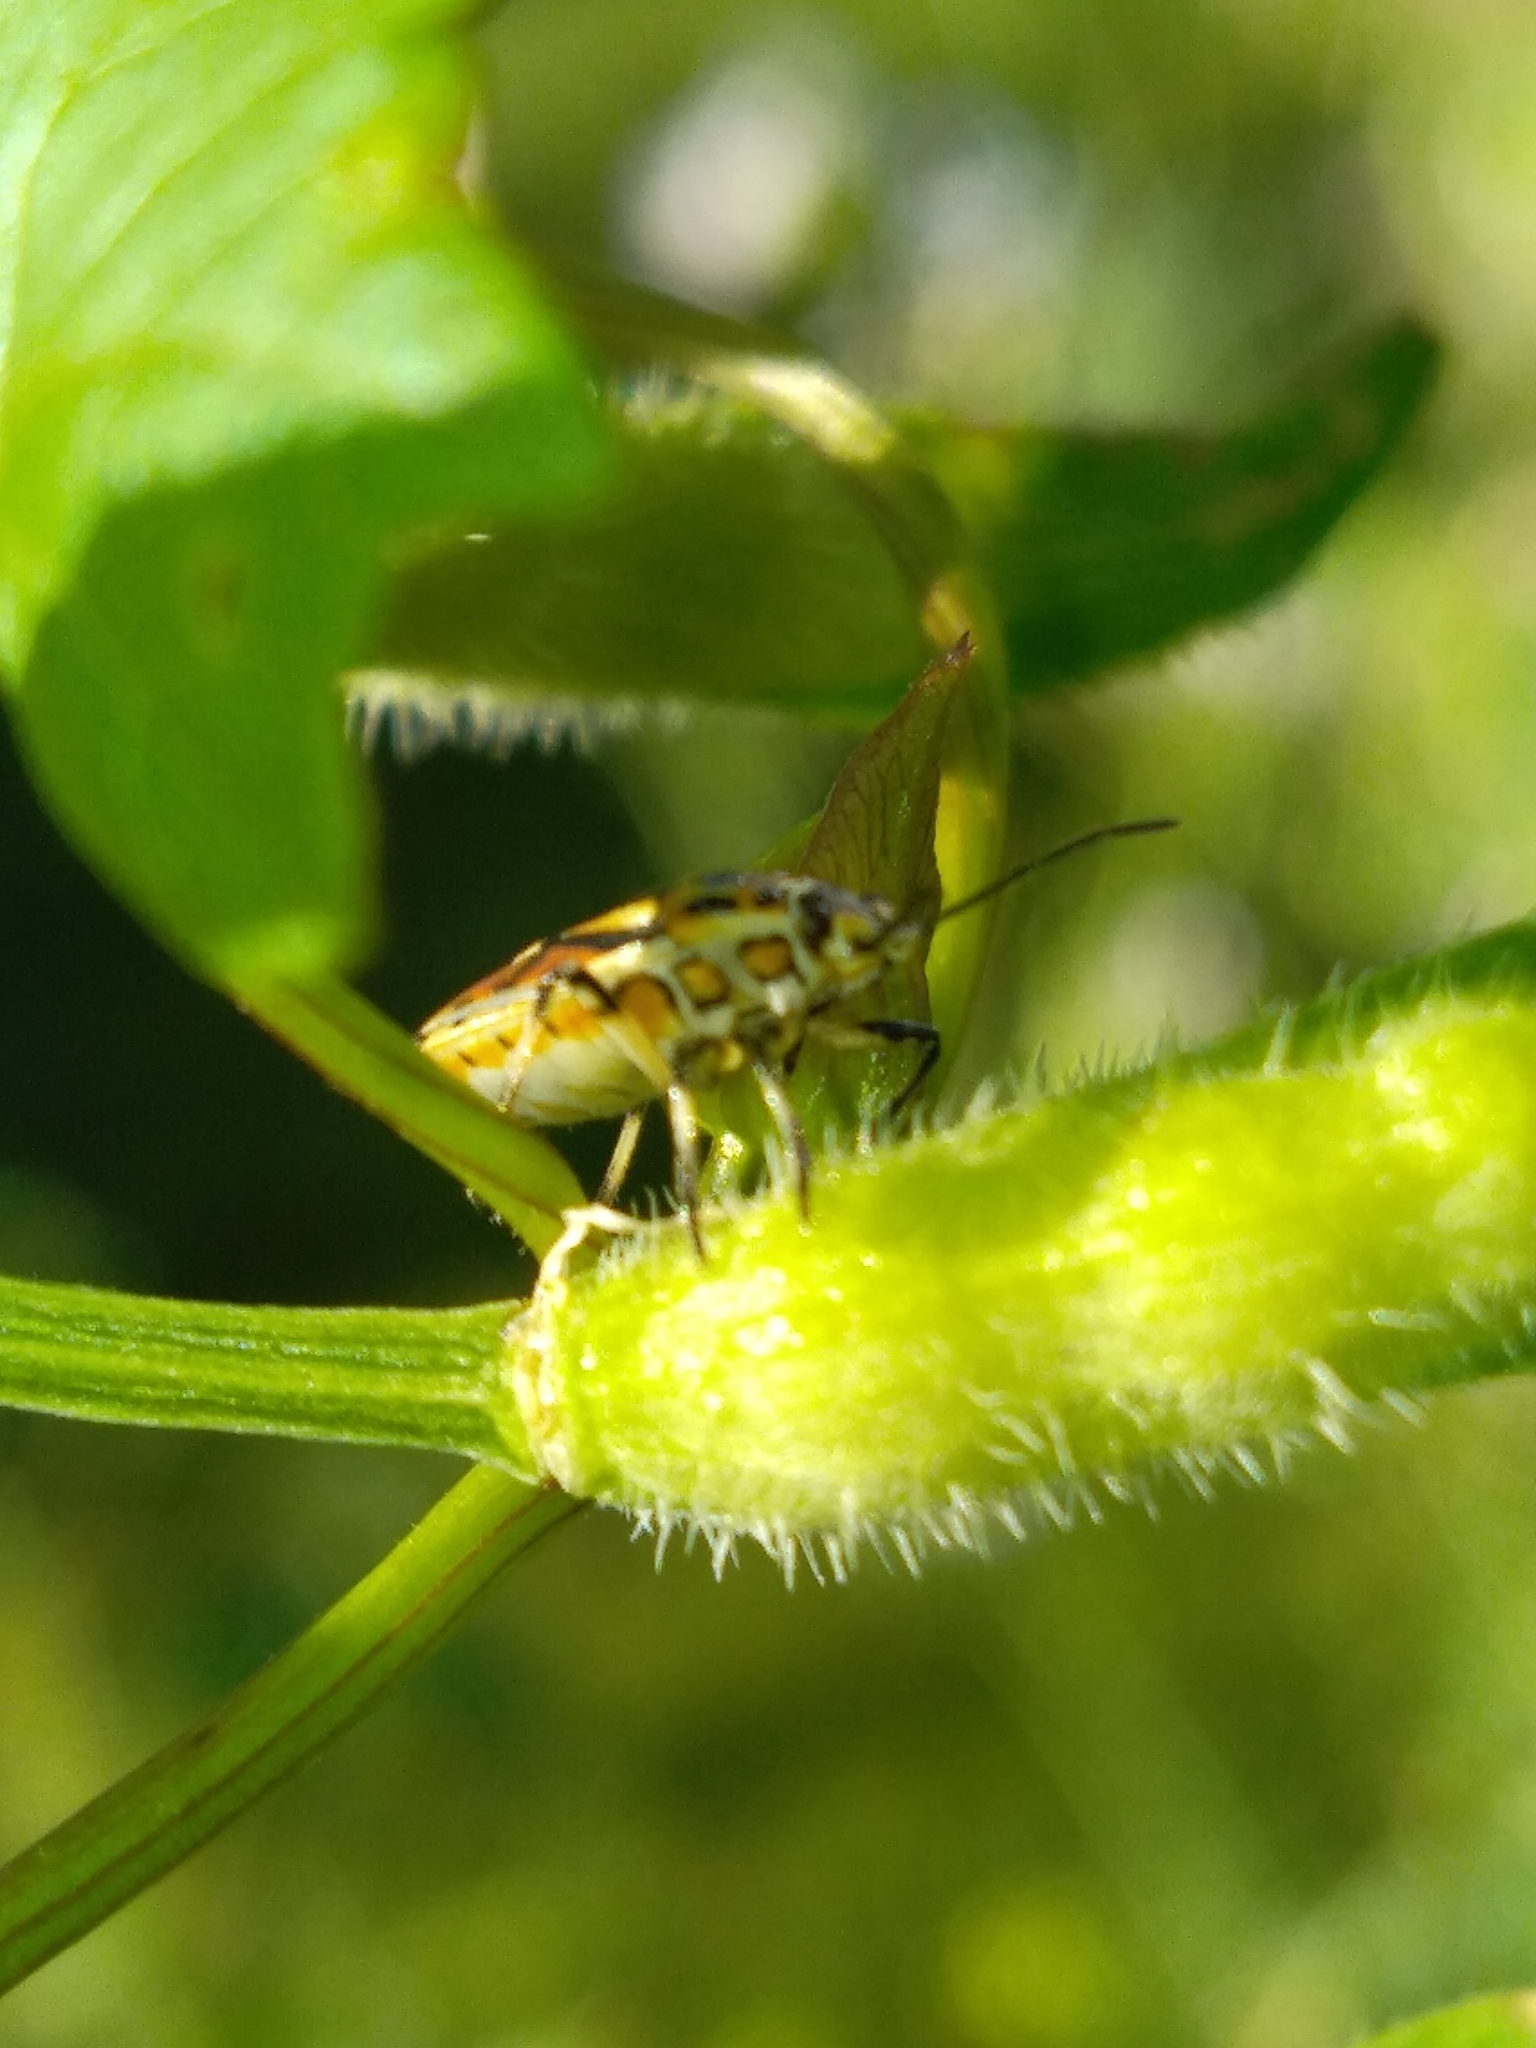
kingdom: Animalia
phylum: Arthropoda
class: Insecta
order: Hemiptera
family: Pentatomidae
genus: Eurydema
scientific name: Eurydema ornata
